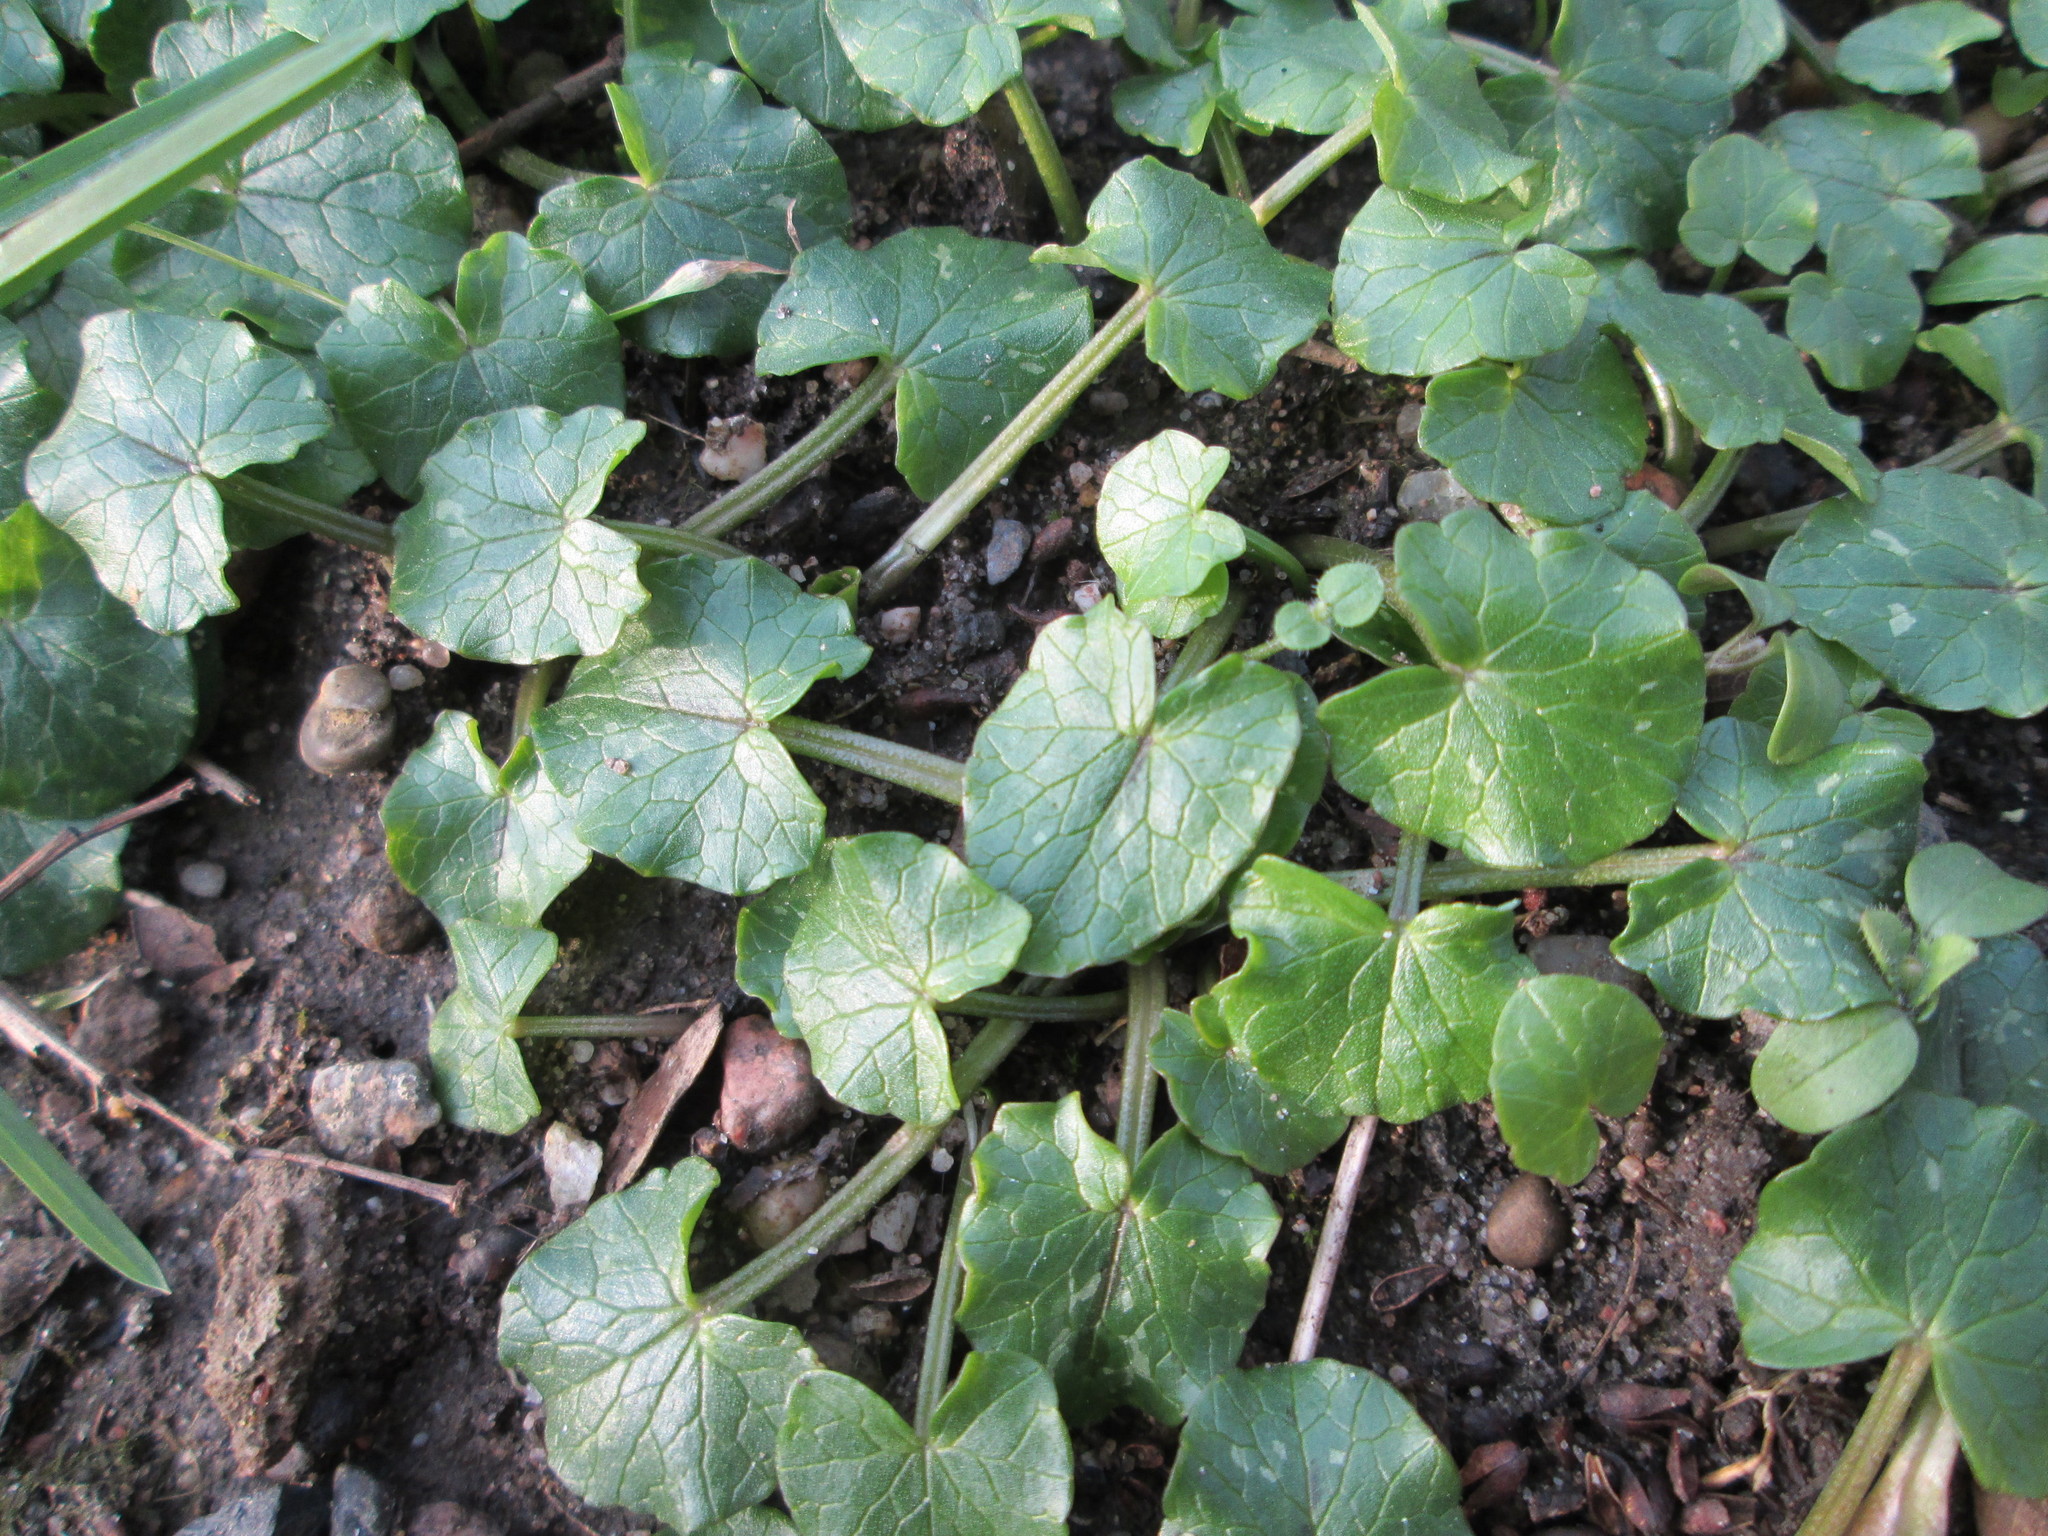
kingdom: Plantae
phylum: Tracheophyta
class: Magnoliopsida
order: Ranunculales
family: Ranunculaceae
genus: Ficaria
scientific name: Ficaria verna
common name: Lesser celandine
